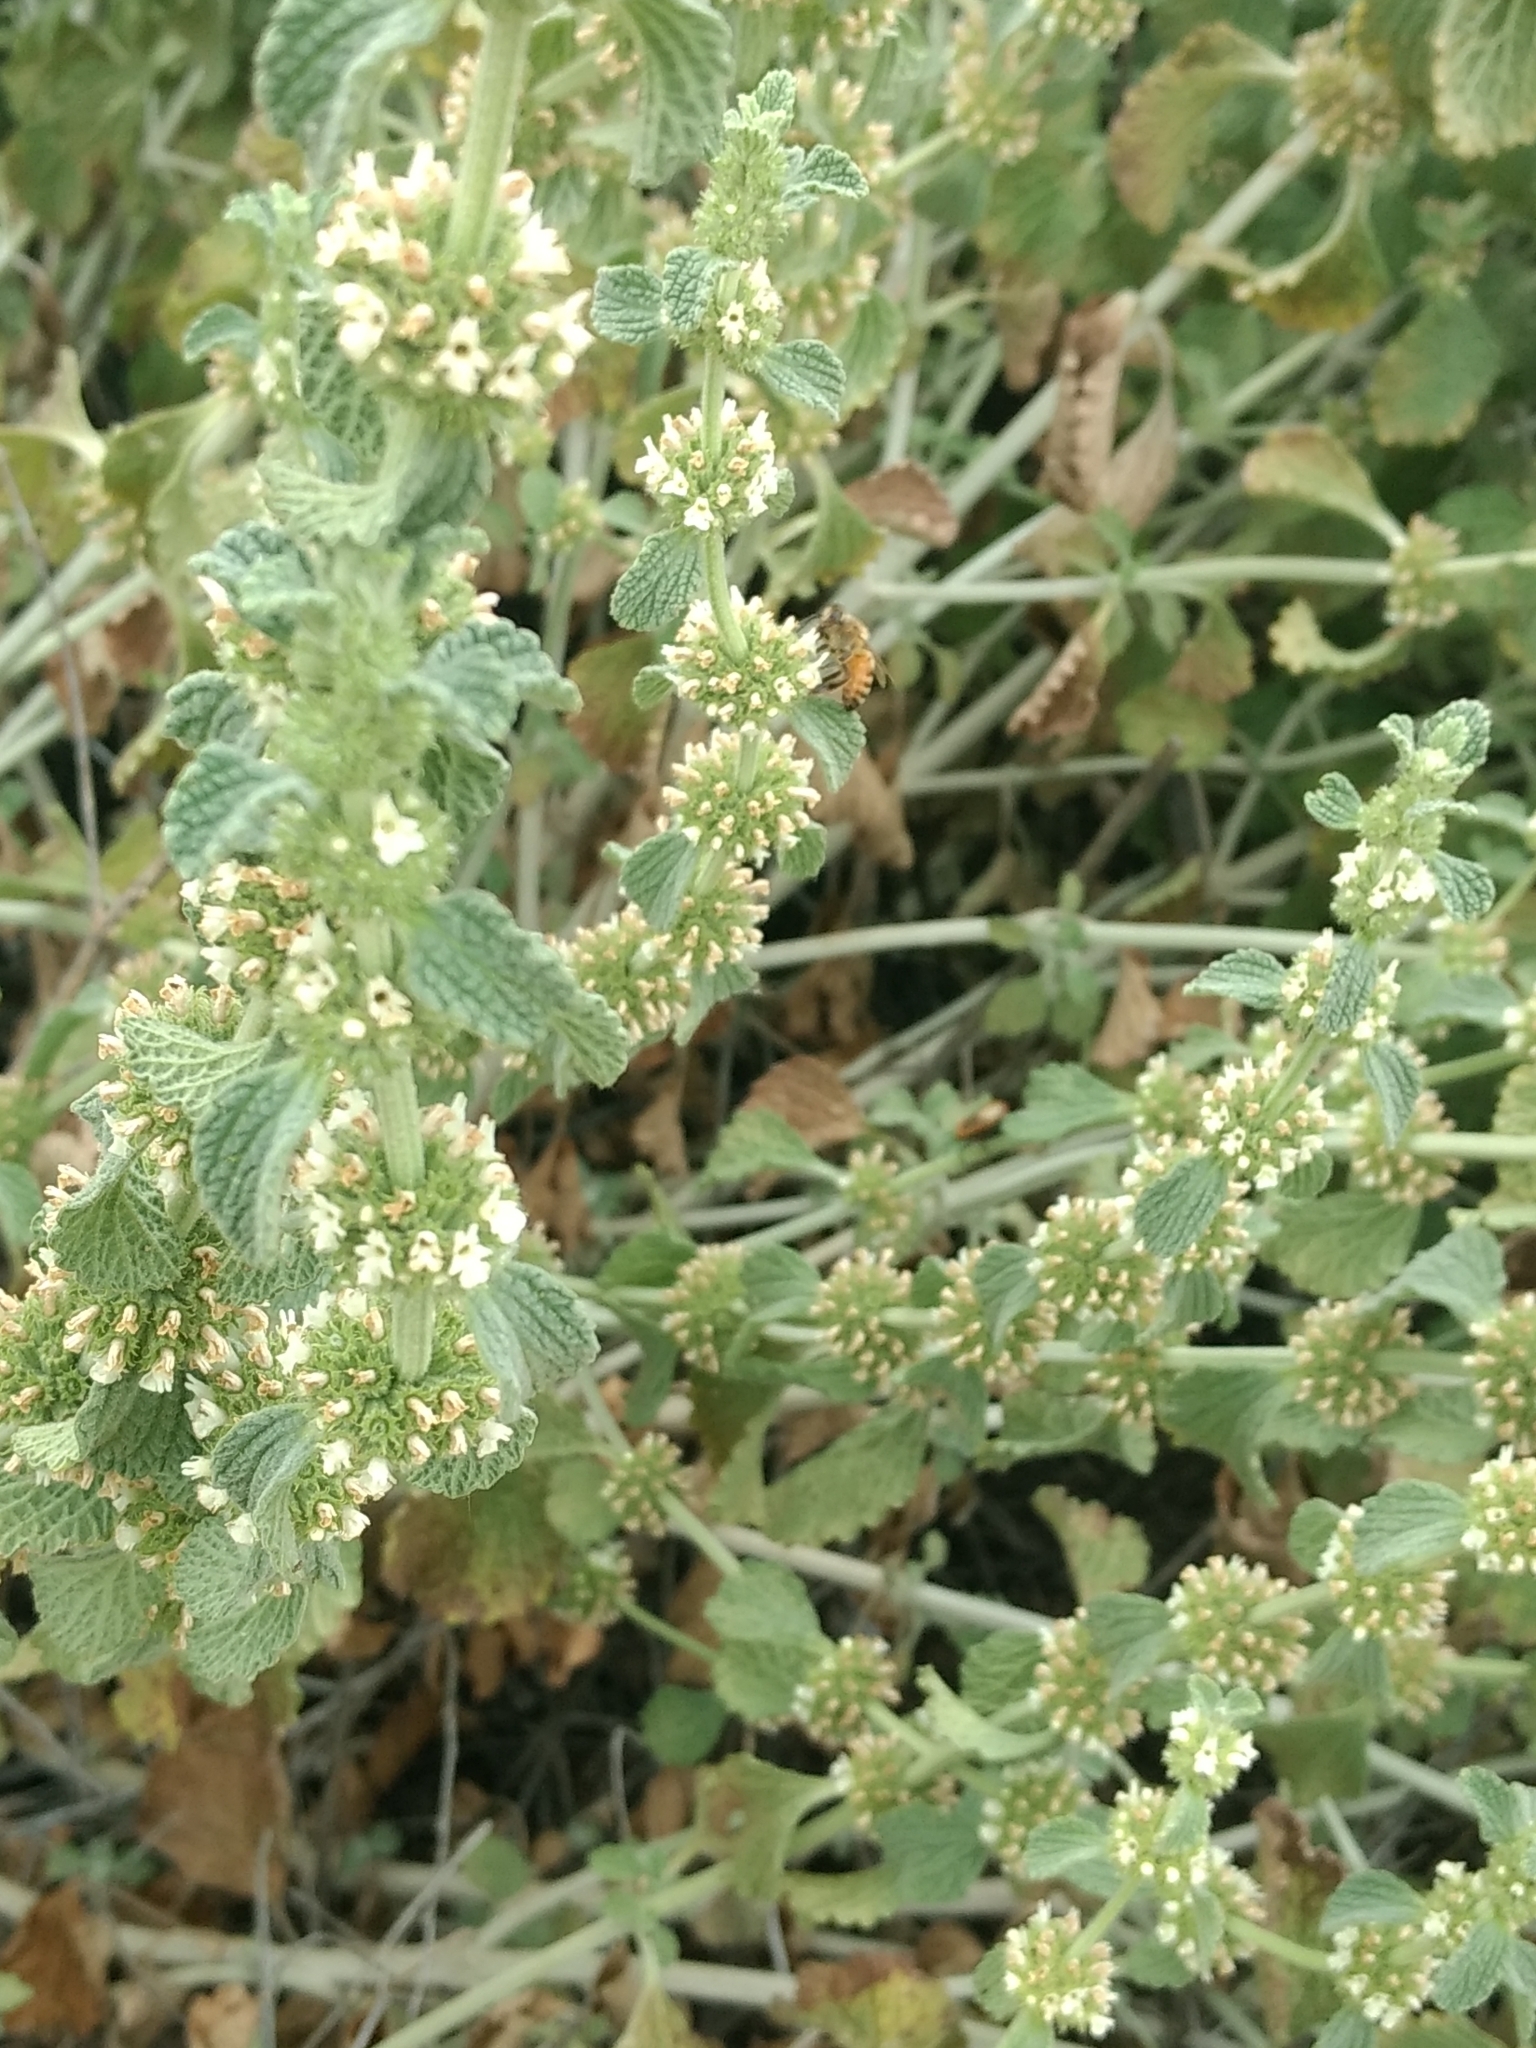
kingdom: Plantae
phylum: Tracheophyta
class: Magnoliopsida
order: Lamiales
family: Lamiaceae
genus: Marrubium
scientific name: Marrubium vulgare
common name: Horehound
